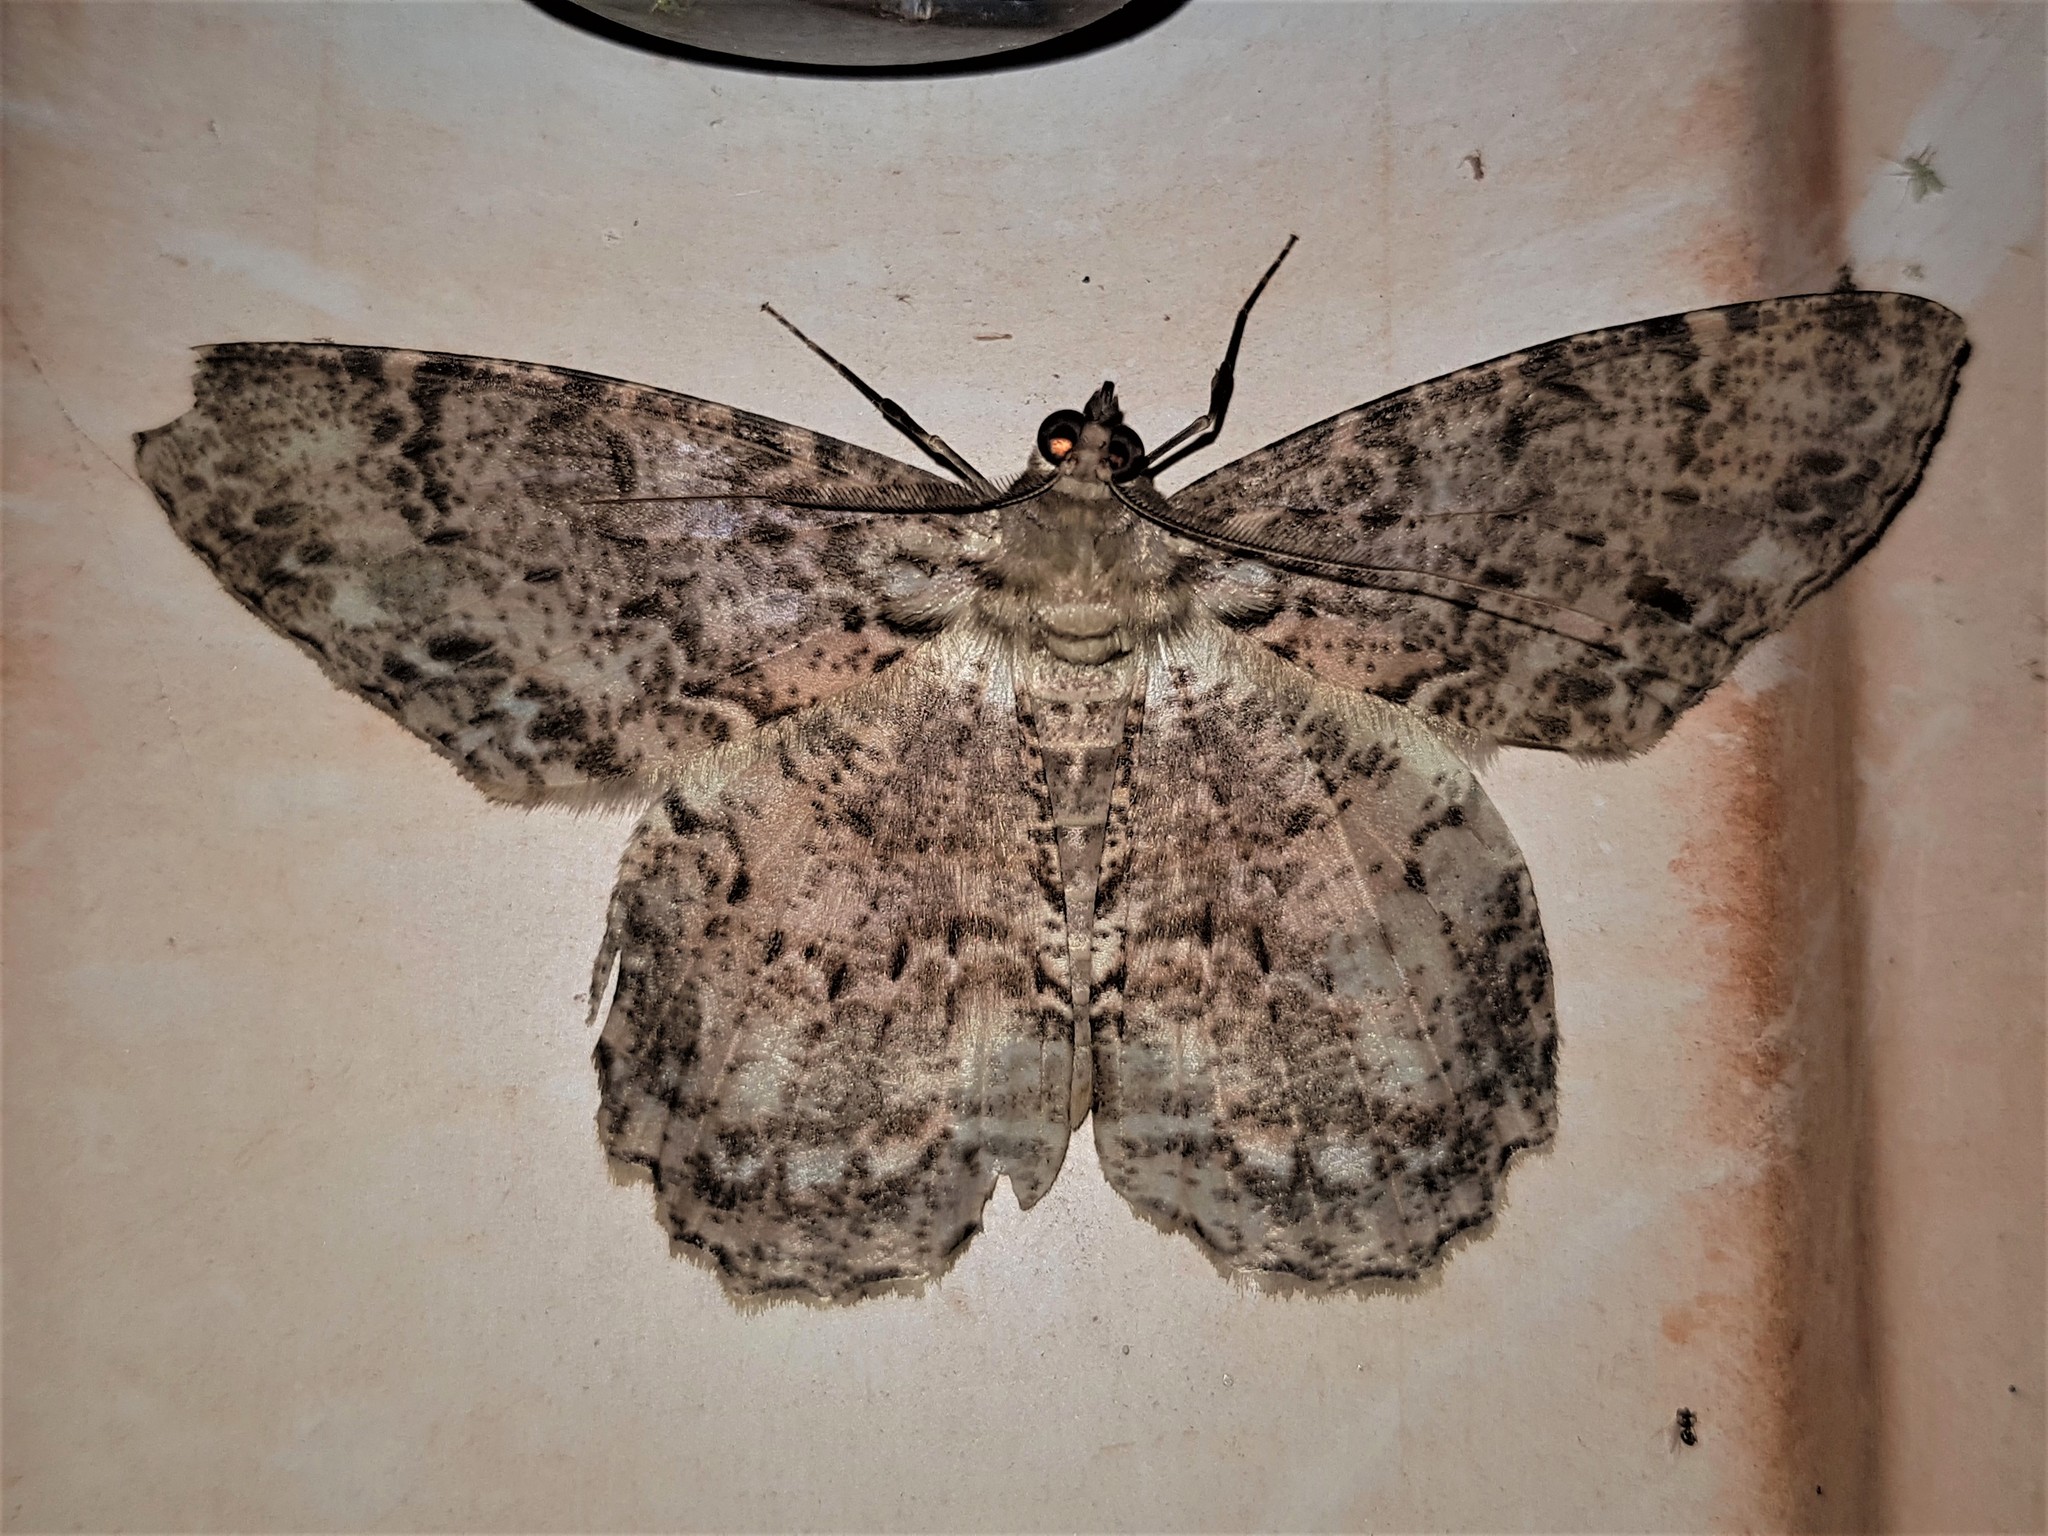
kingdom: Animalia
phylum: Arthropoda
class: Insecta
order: Lepidoptera
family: Geometridae
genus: Epimecis
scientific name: Epimecis matronaria
